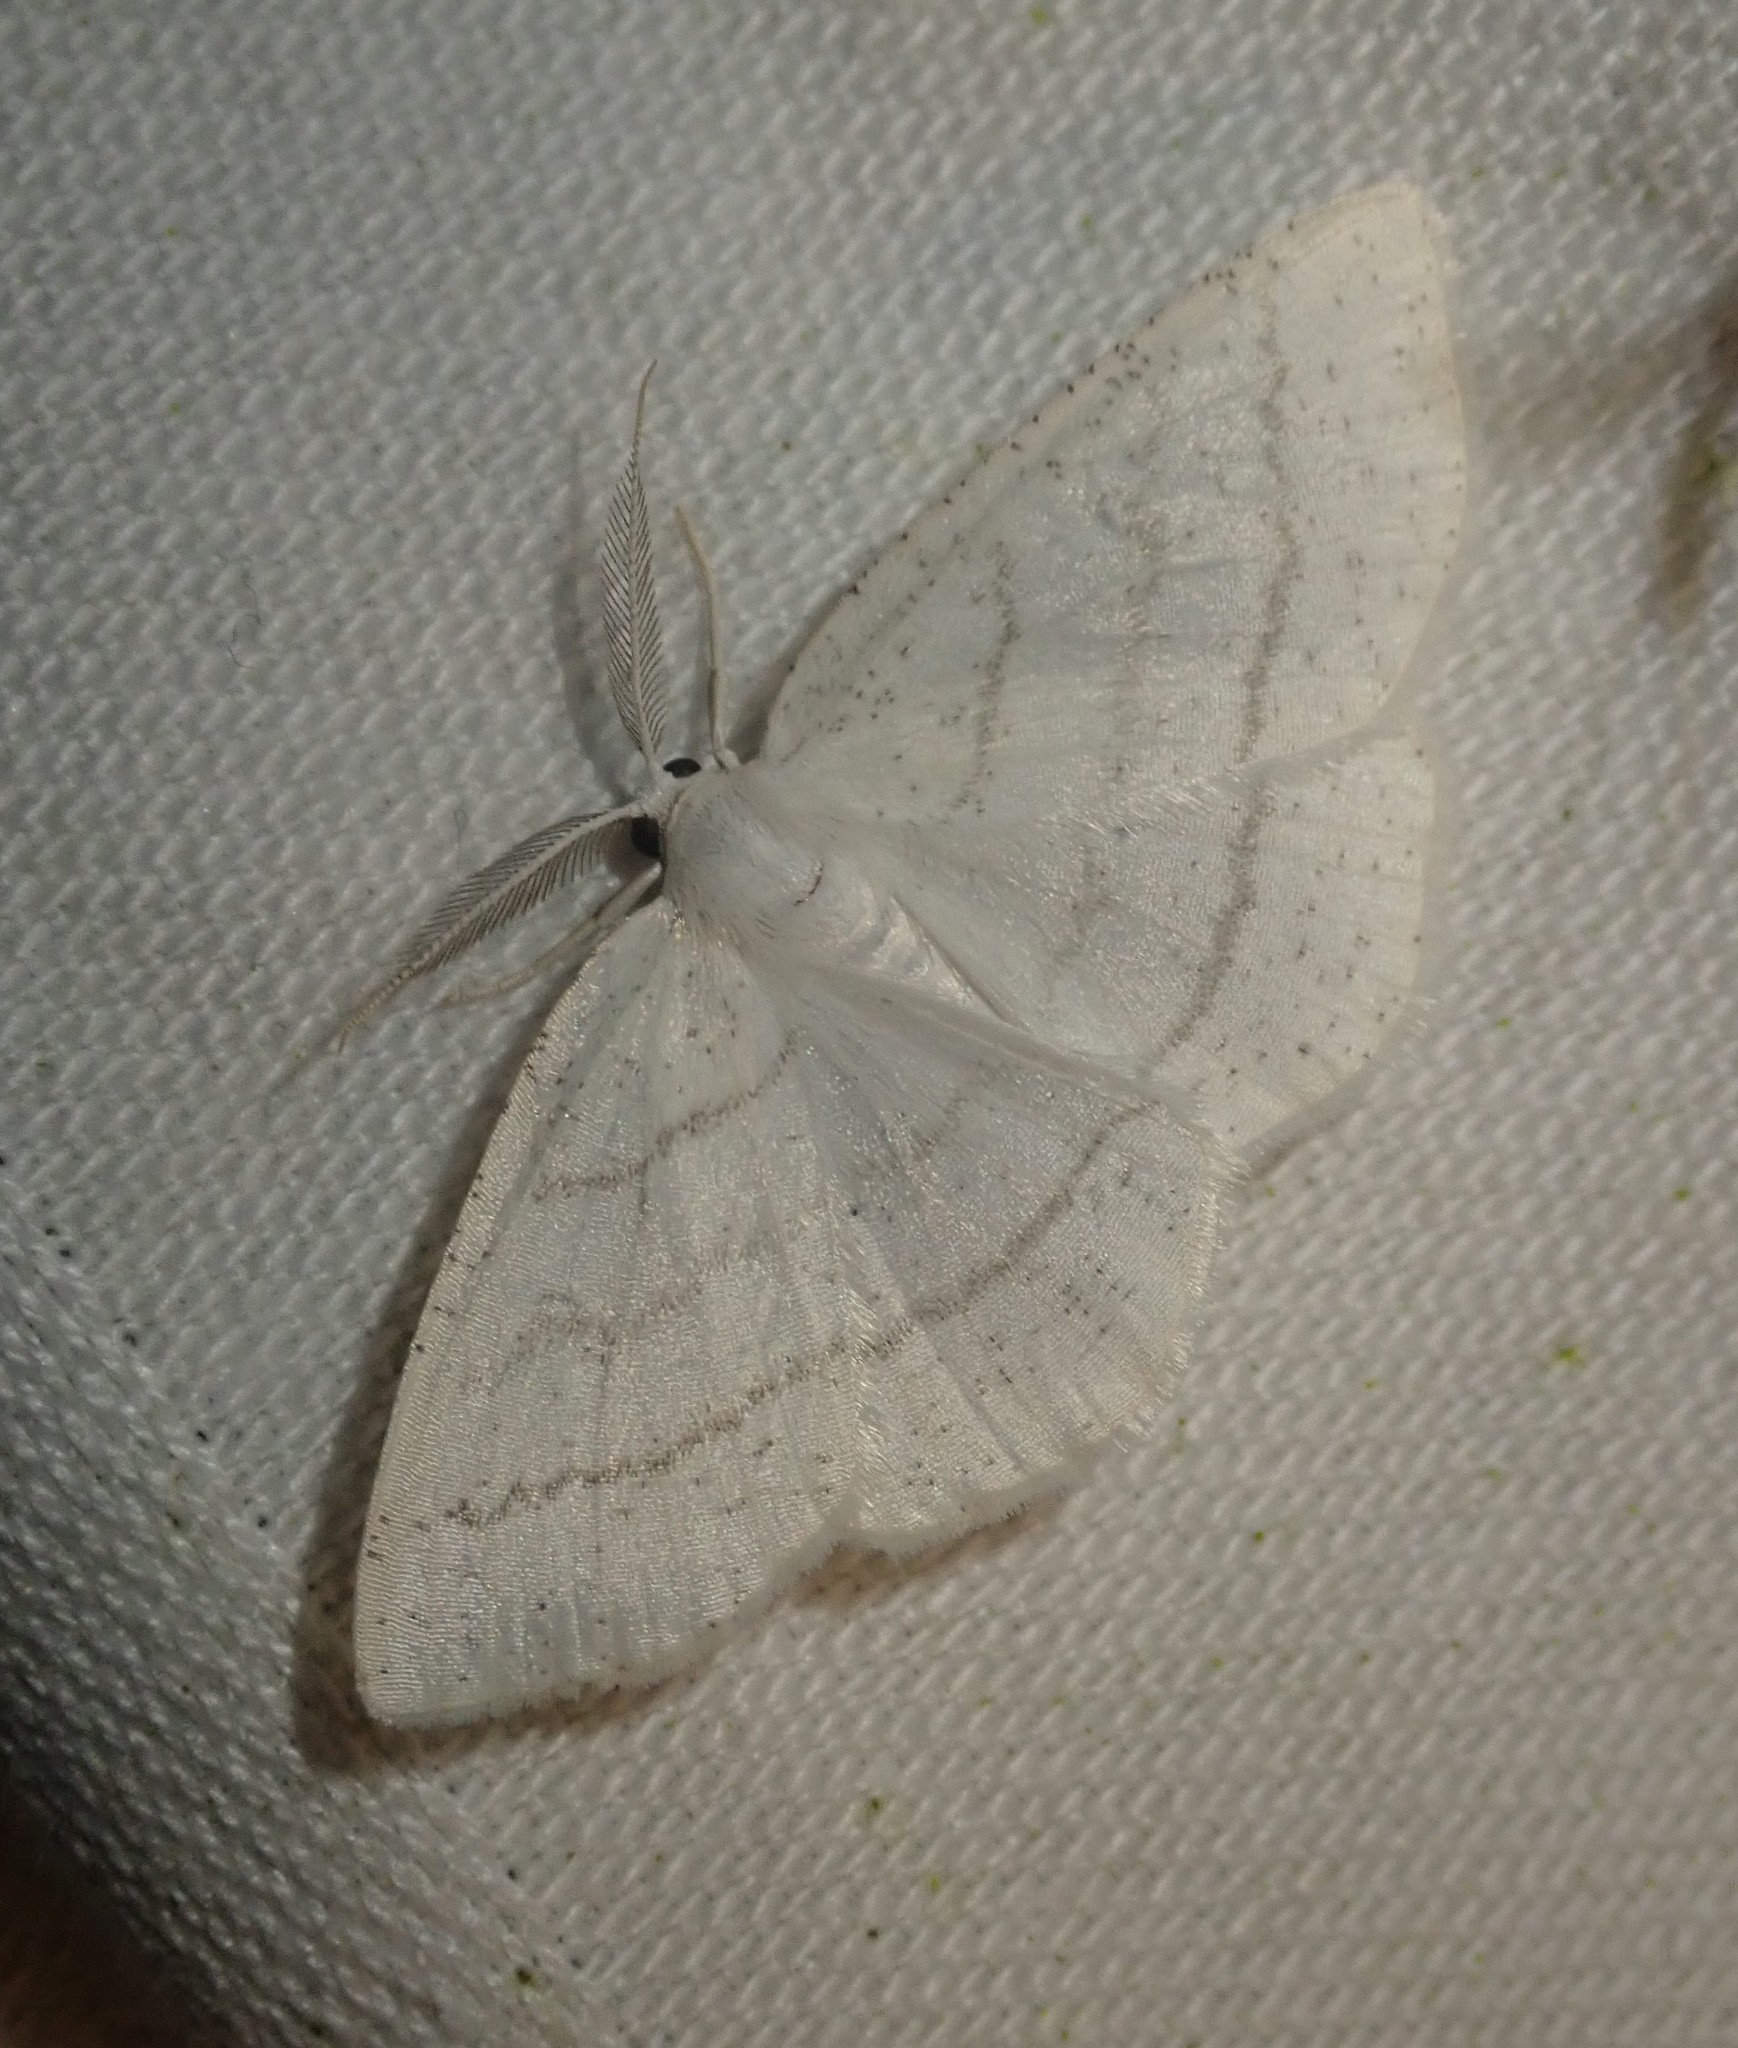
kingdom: Animalia
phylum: Arthropoda
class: Insecta
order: Lepidoptera
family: Geometridae
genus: Cabera
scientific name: Cabera pusaria
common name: Common white wave
